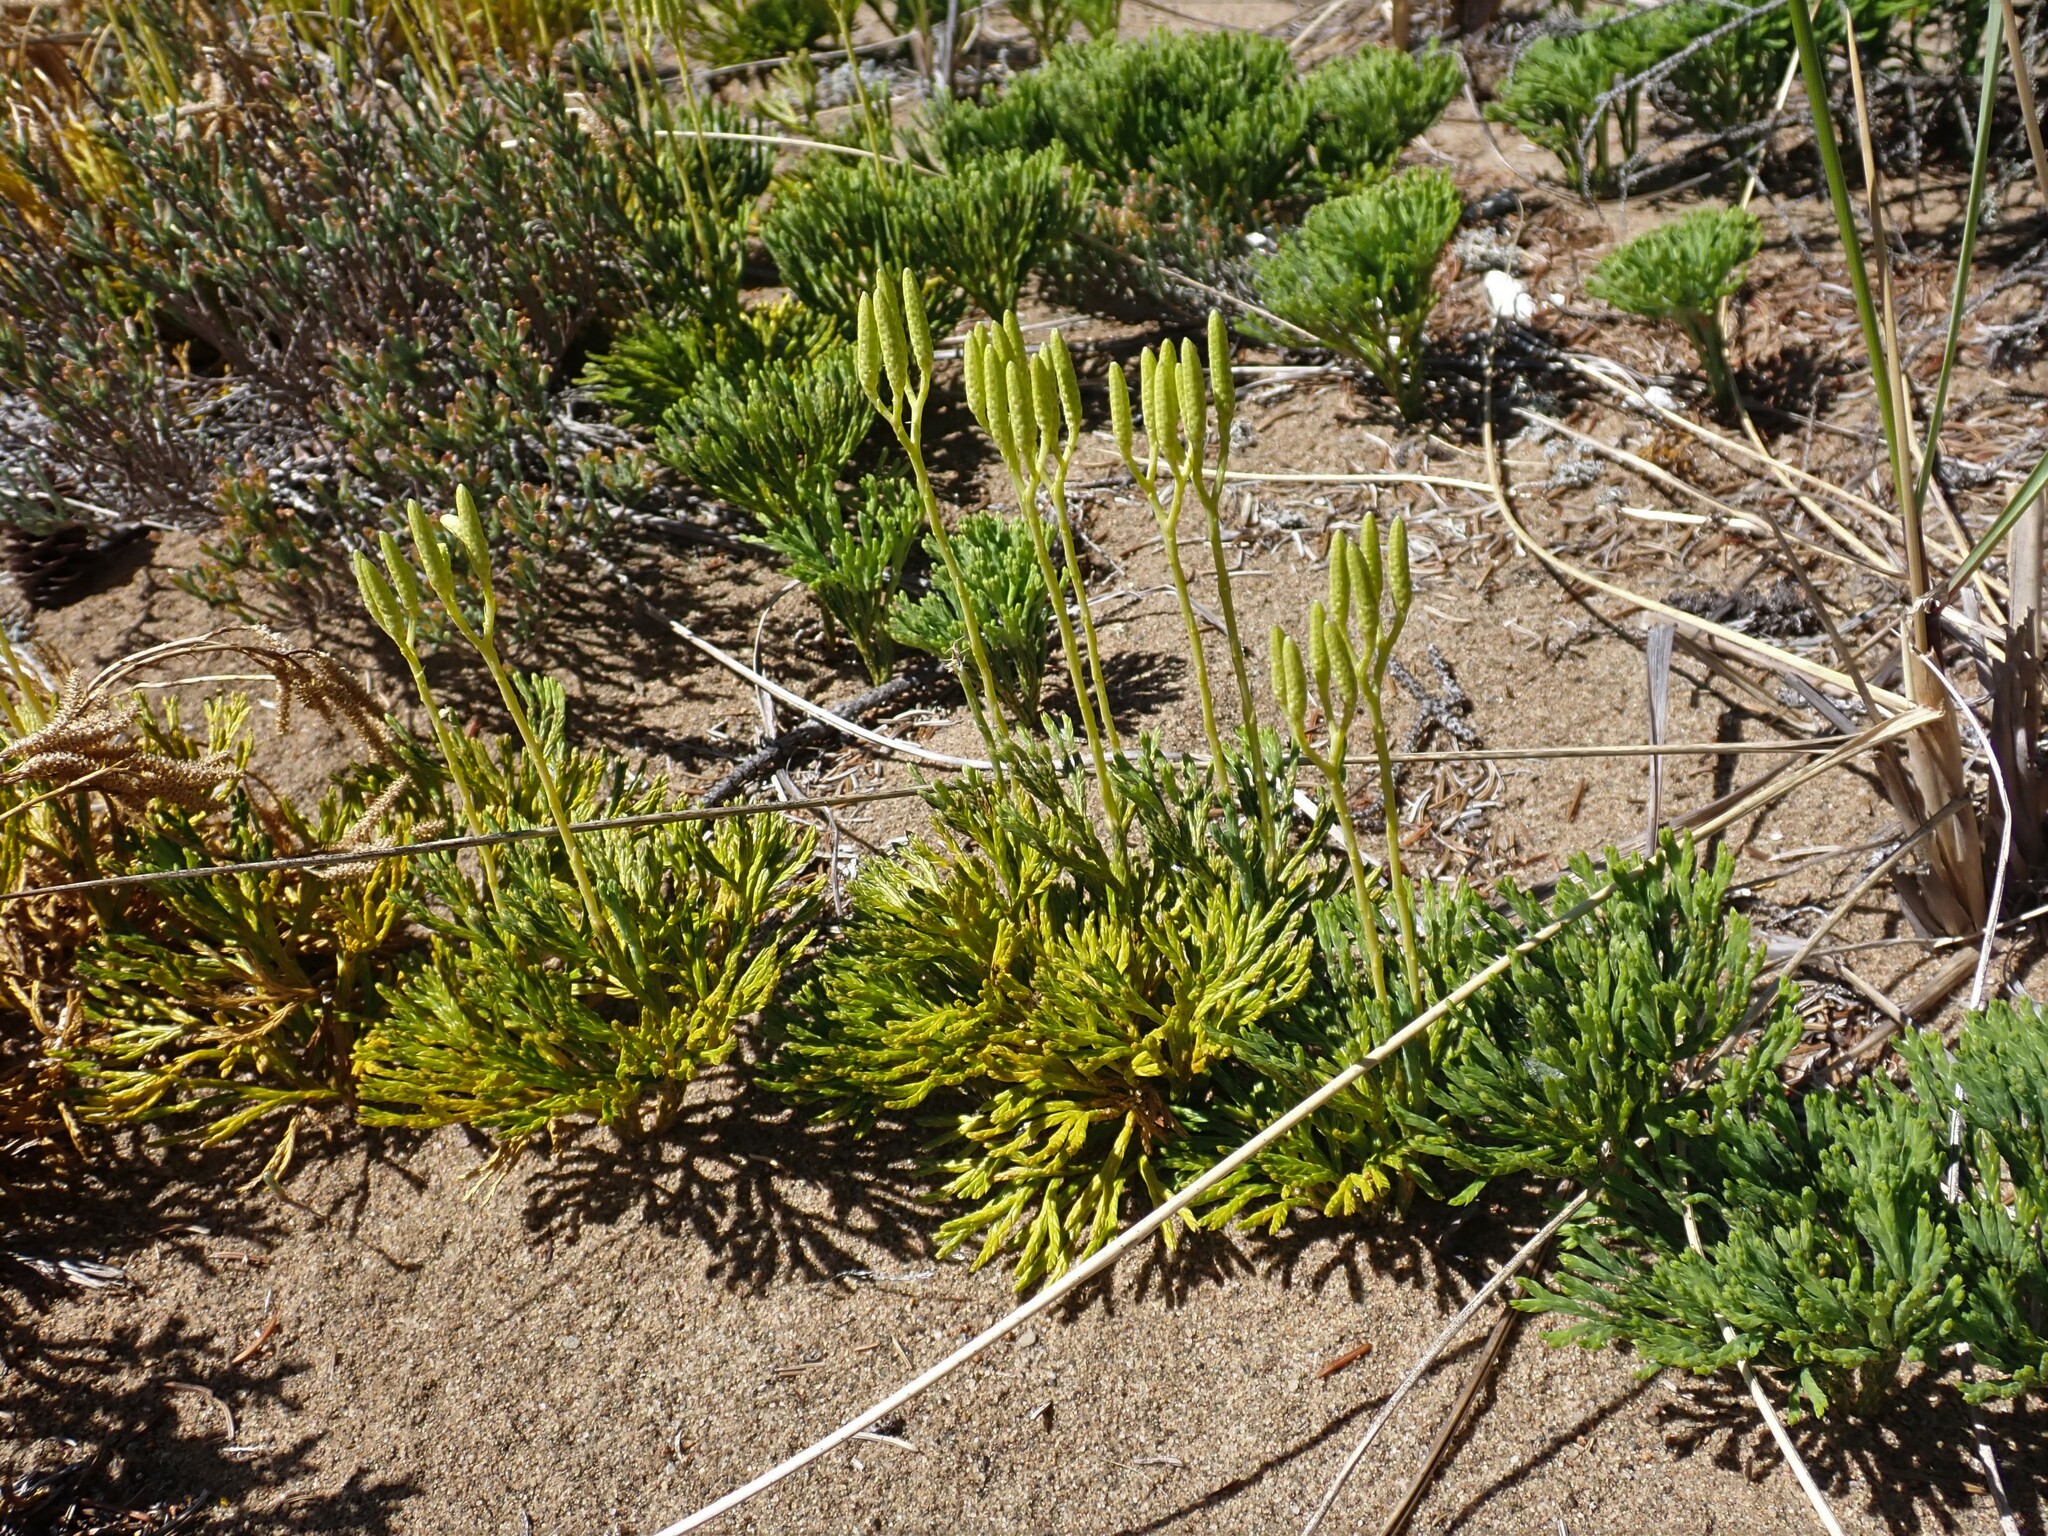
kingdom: Plantae
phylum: Tracheophyta
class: Lycopodiopsida
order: Lycopodiales
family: Lycopodiaceae
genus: Diphasiastrum
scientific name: Diphasiastrum tristachyum
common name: Blue ground-cedar
